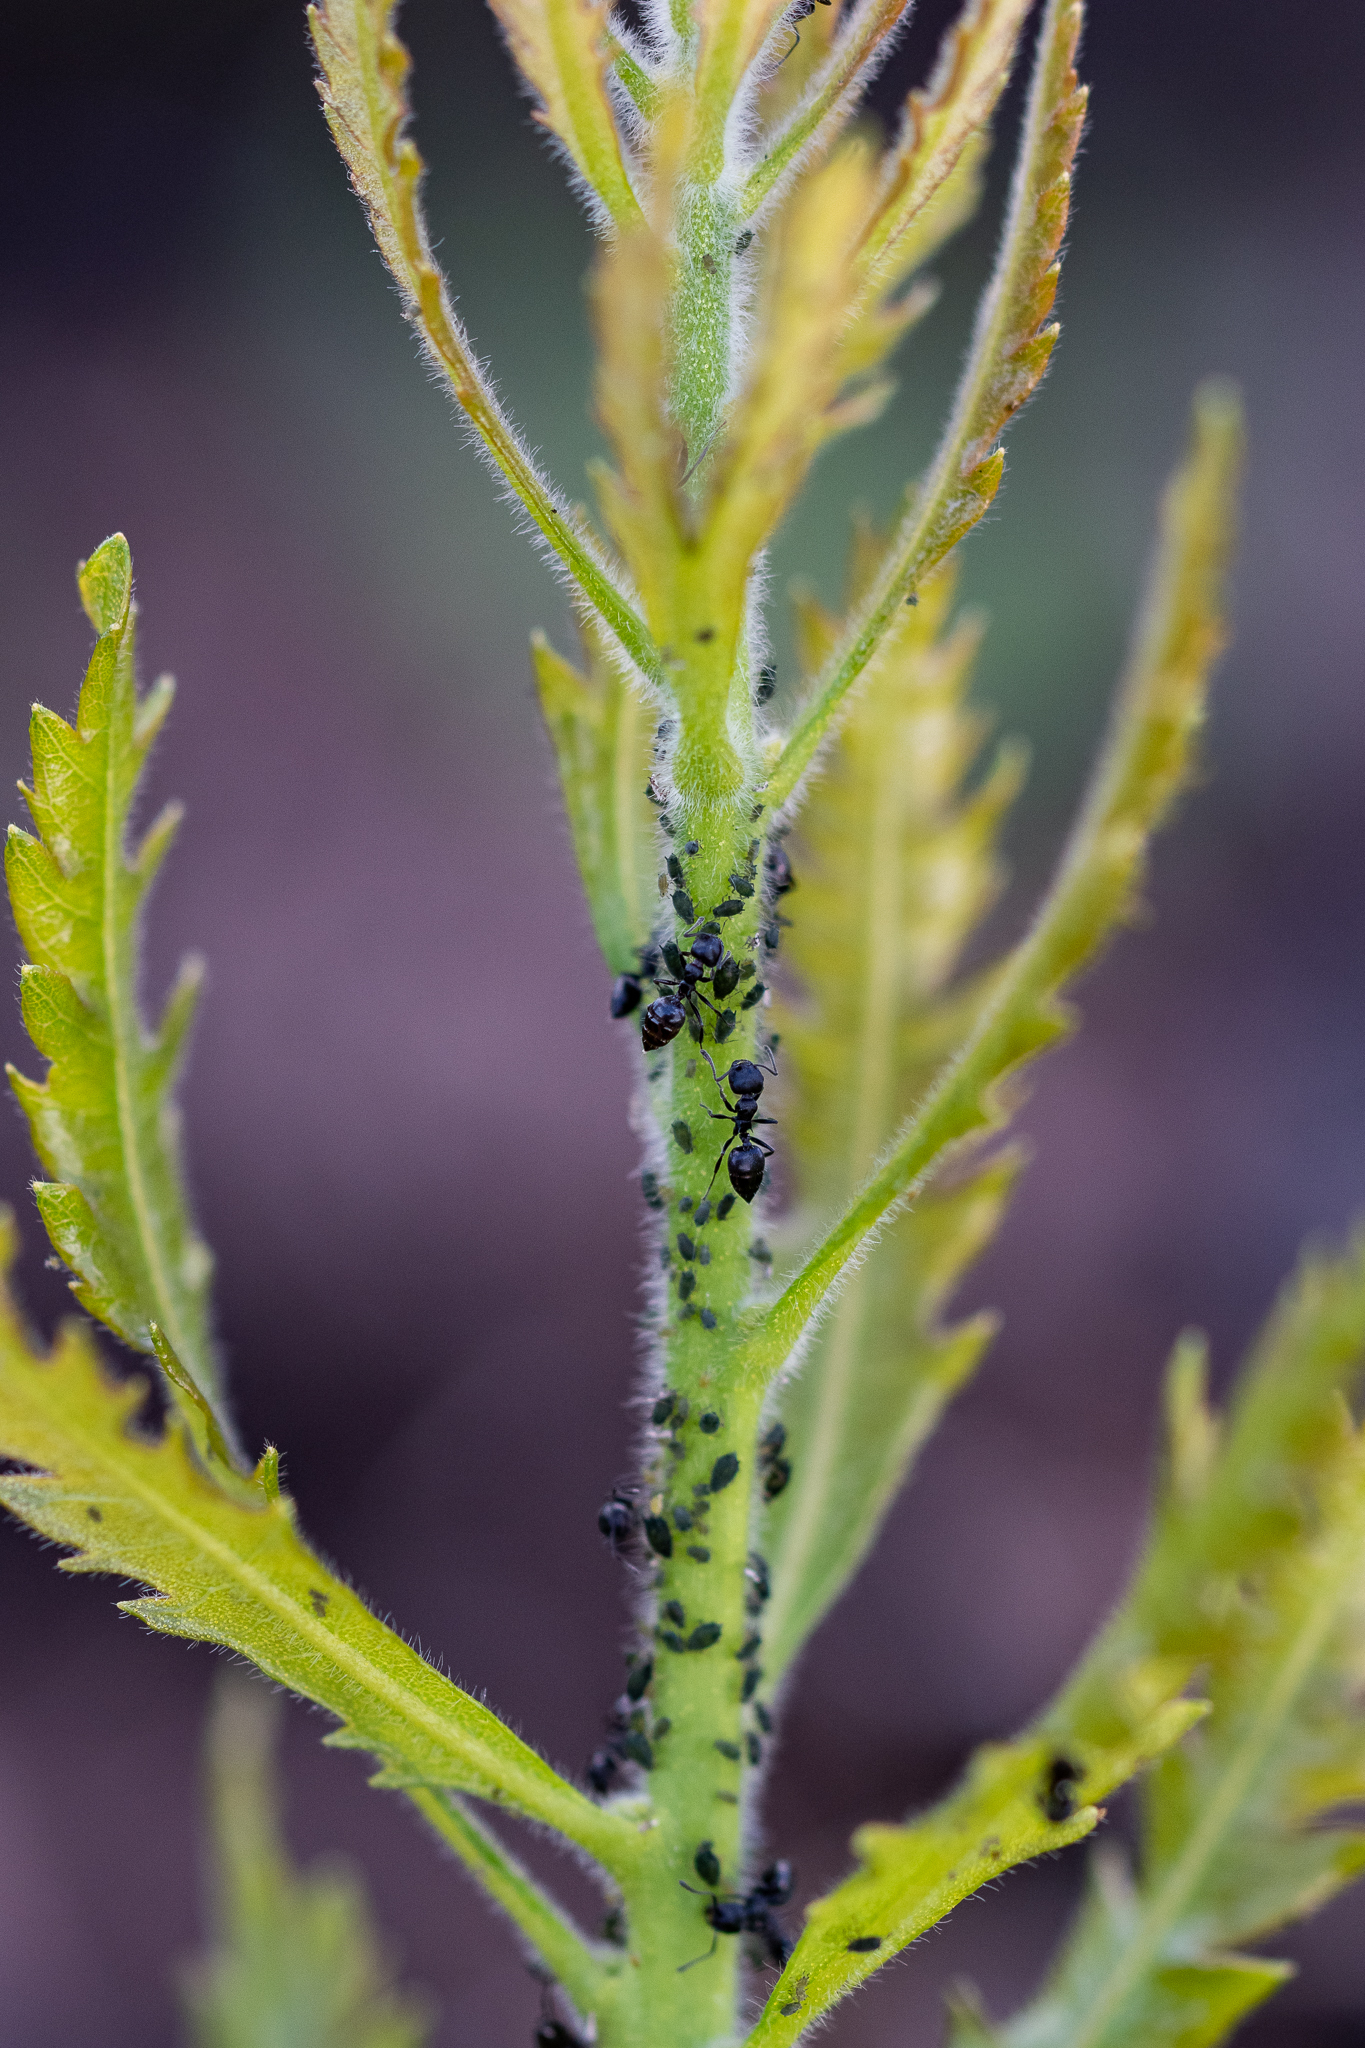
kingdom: Animalia
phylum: Arthropoda
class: Insecta
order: Hymenoptera
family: Formicidae
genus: Crematogaster
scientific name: Crematogaster peringueyi
